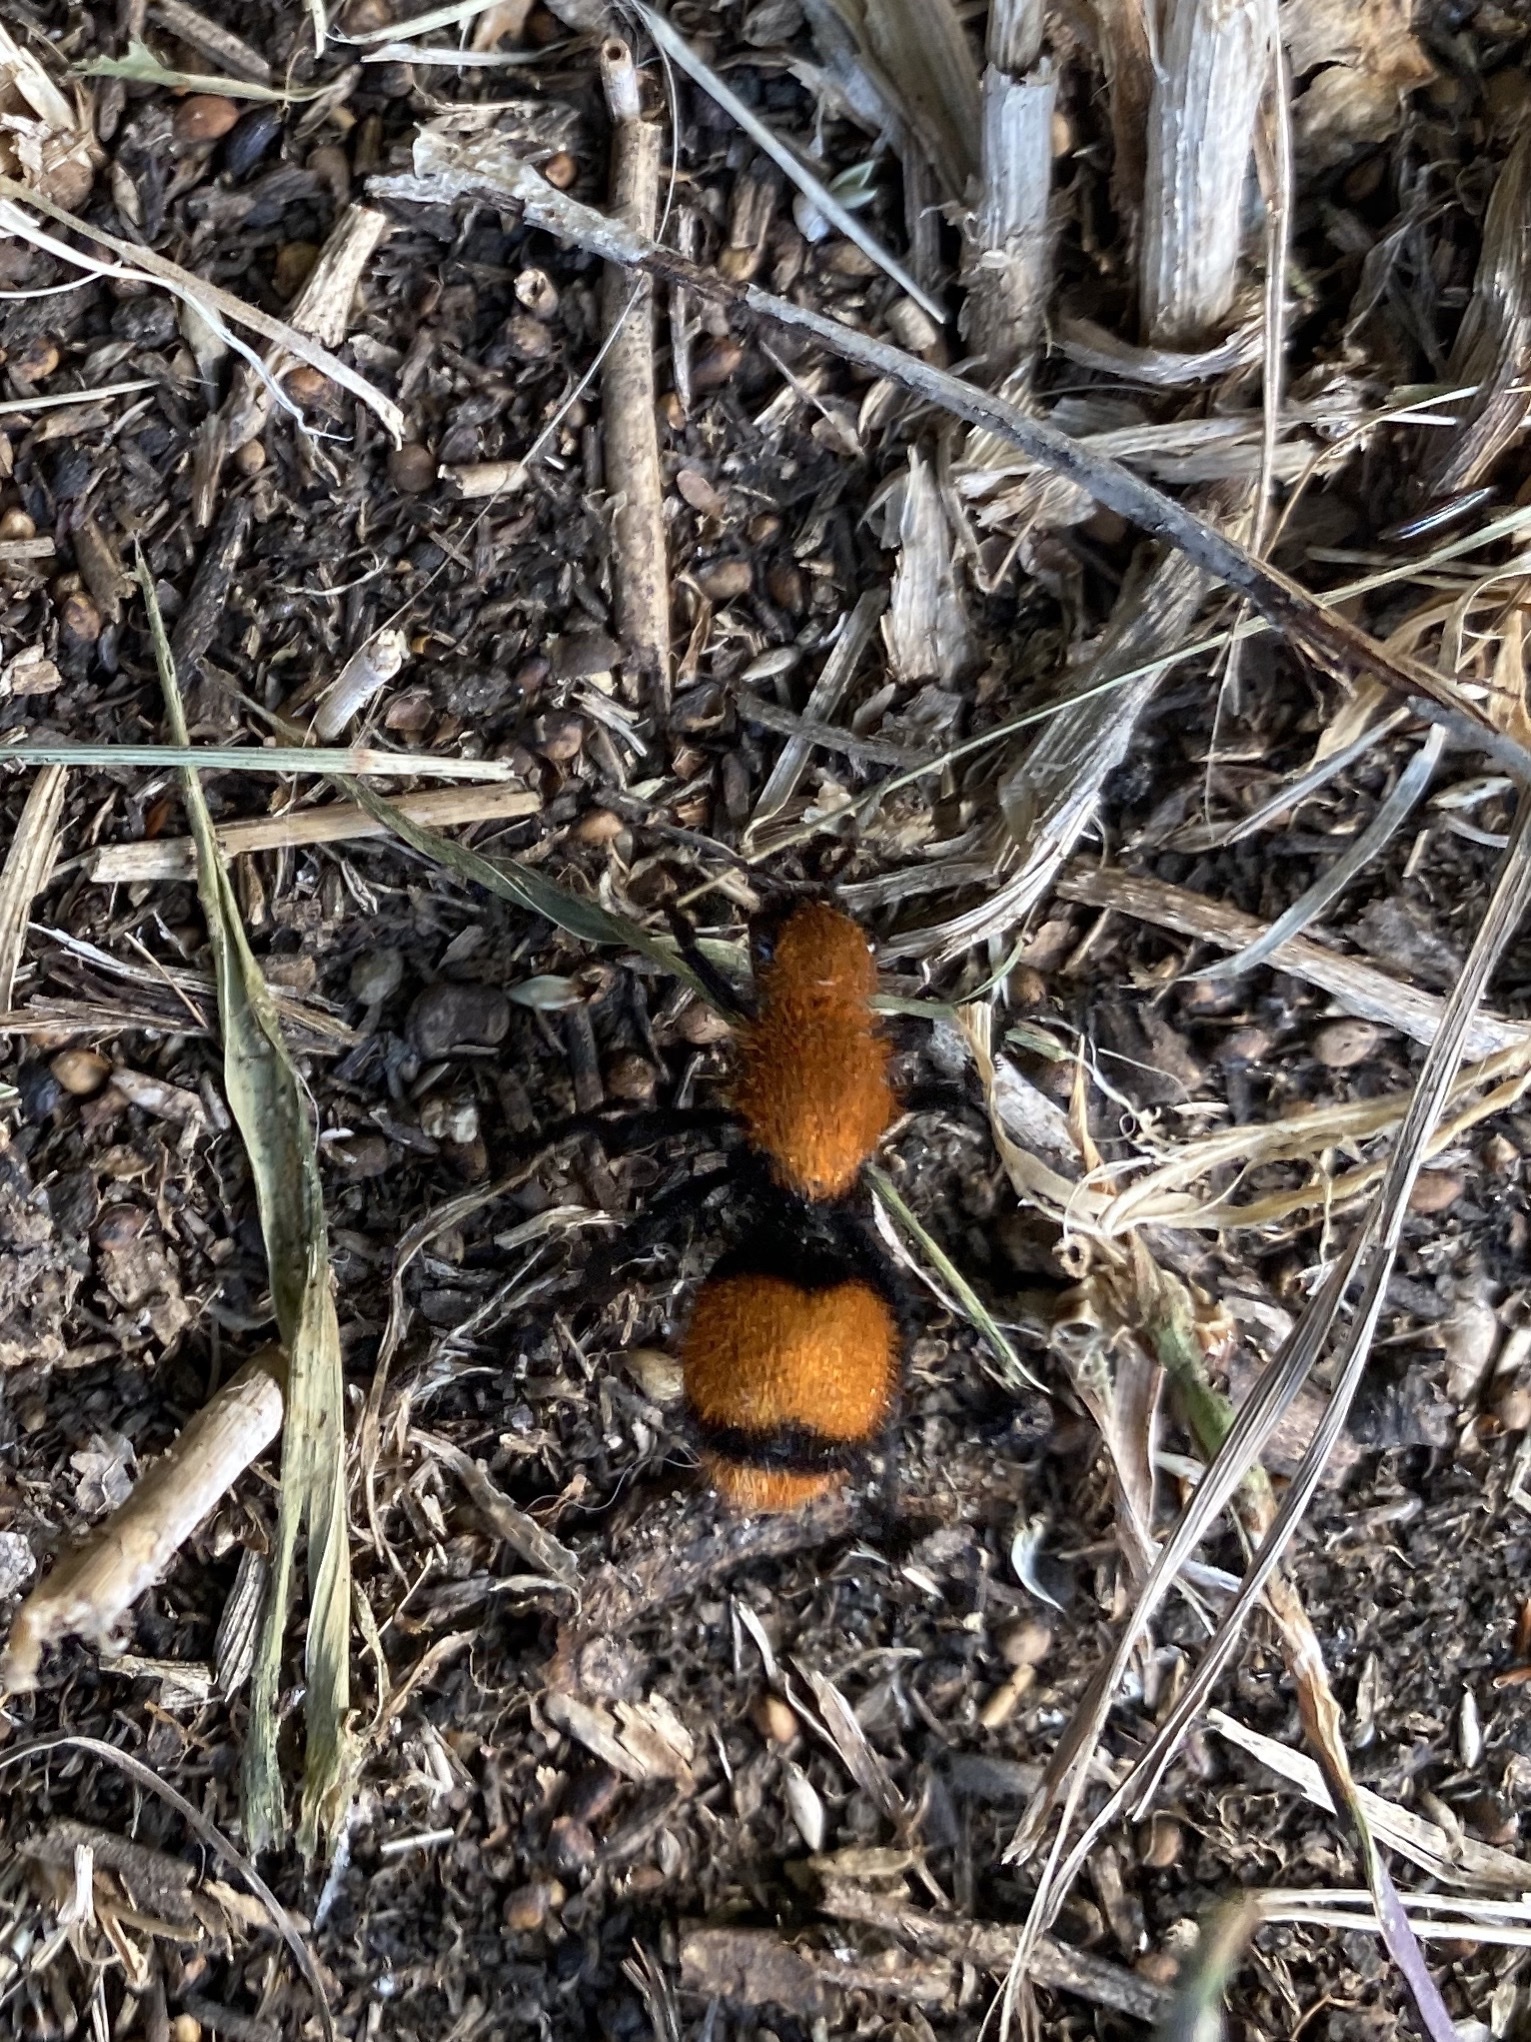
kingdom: Animalia
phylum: Arthropoda
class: Insecta
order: Hymenoptera
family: Mutillidae
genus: Dasymutilla
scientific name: Dasymutilla occidentalis
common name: Common eastern velvet ant
